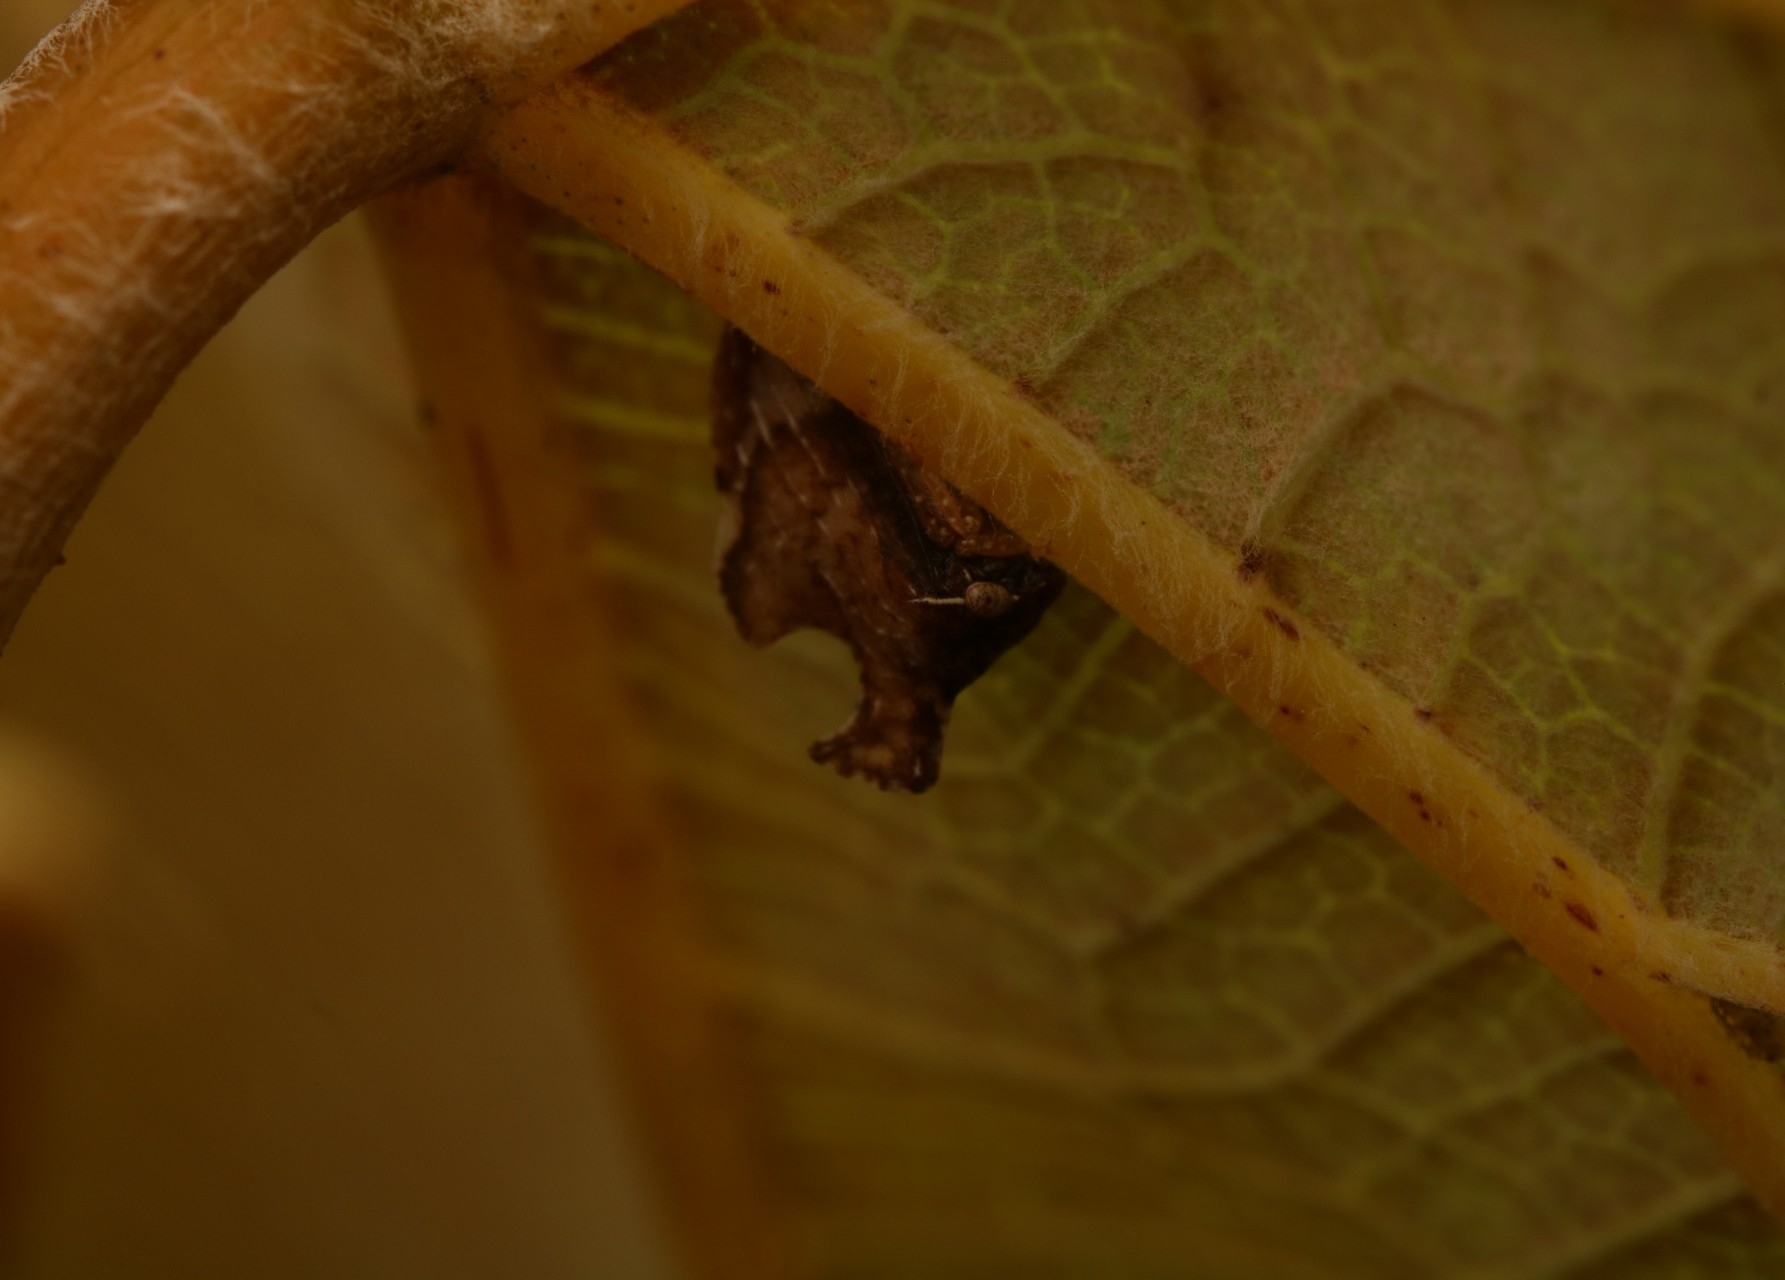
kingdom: Animalia
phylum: Arthropoda
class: Insecta
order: Hemiptera
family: Membracidae
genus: Entylia
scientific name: Entylia carinata
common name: Keeled treehopper
